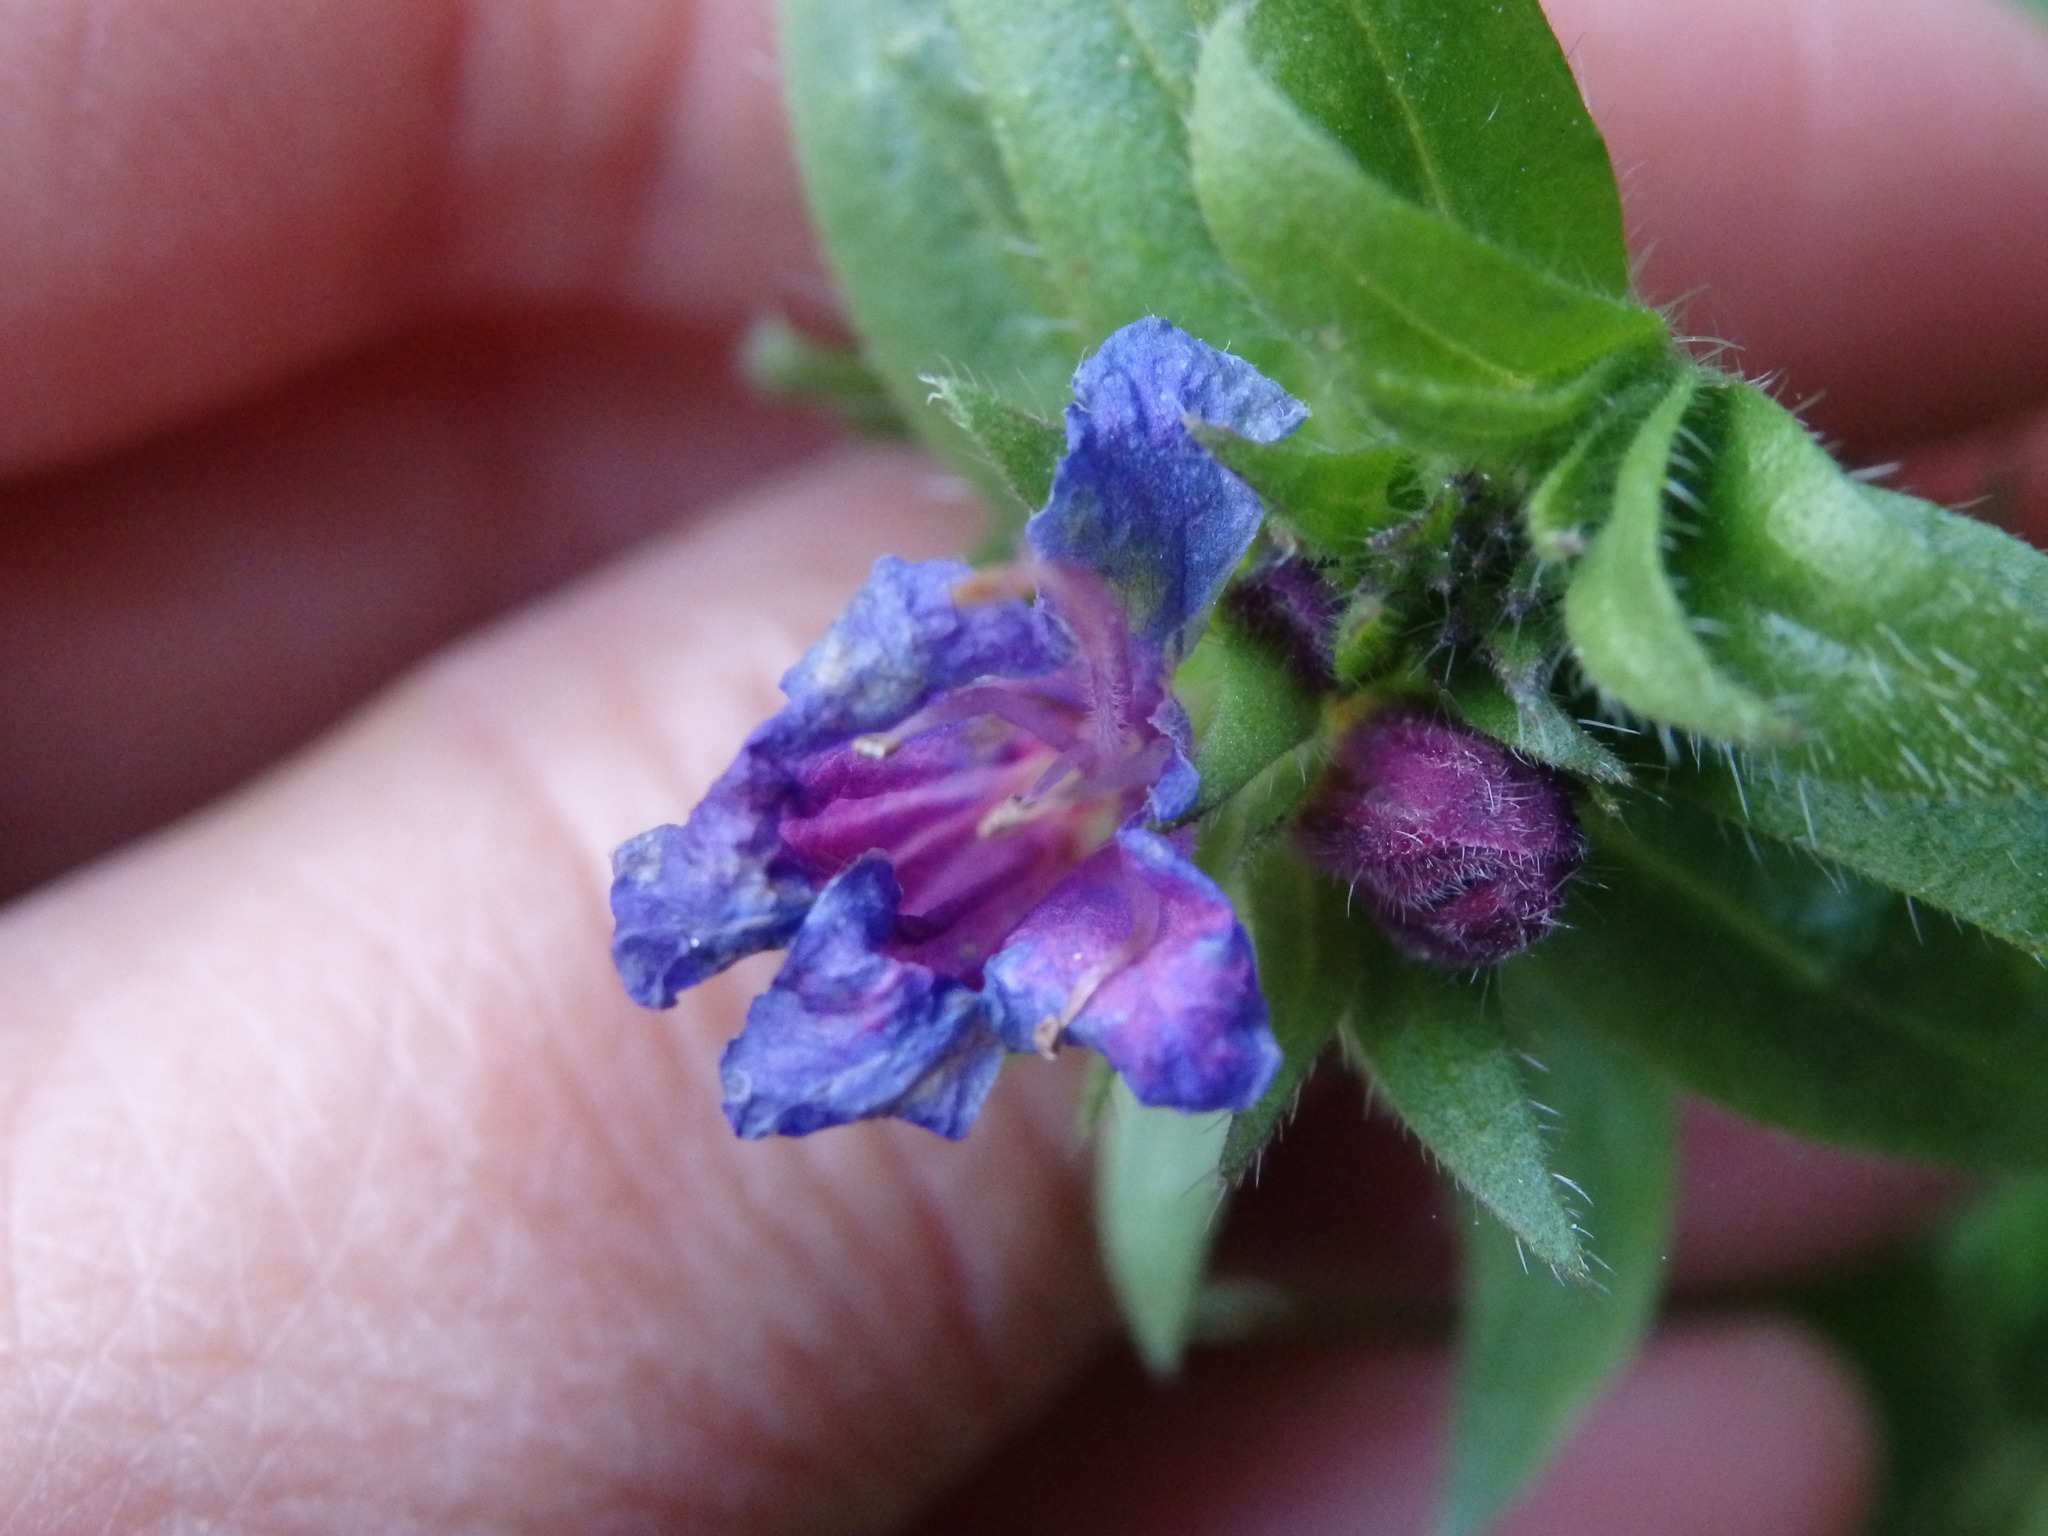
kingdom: Plantae
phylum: Tracheophyta
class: Magnoliopsida
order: Boraginales
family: Boraginaceae
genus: Echium
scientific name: Echium rosulatum
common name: Lax viper's-bugloss
